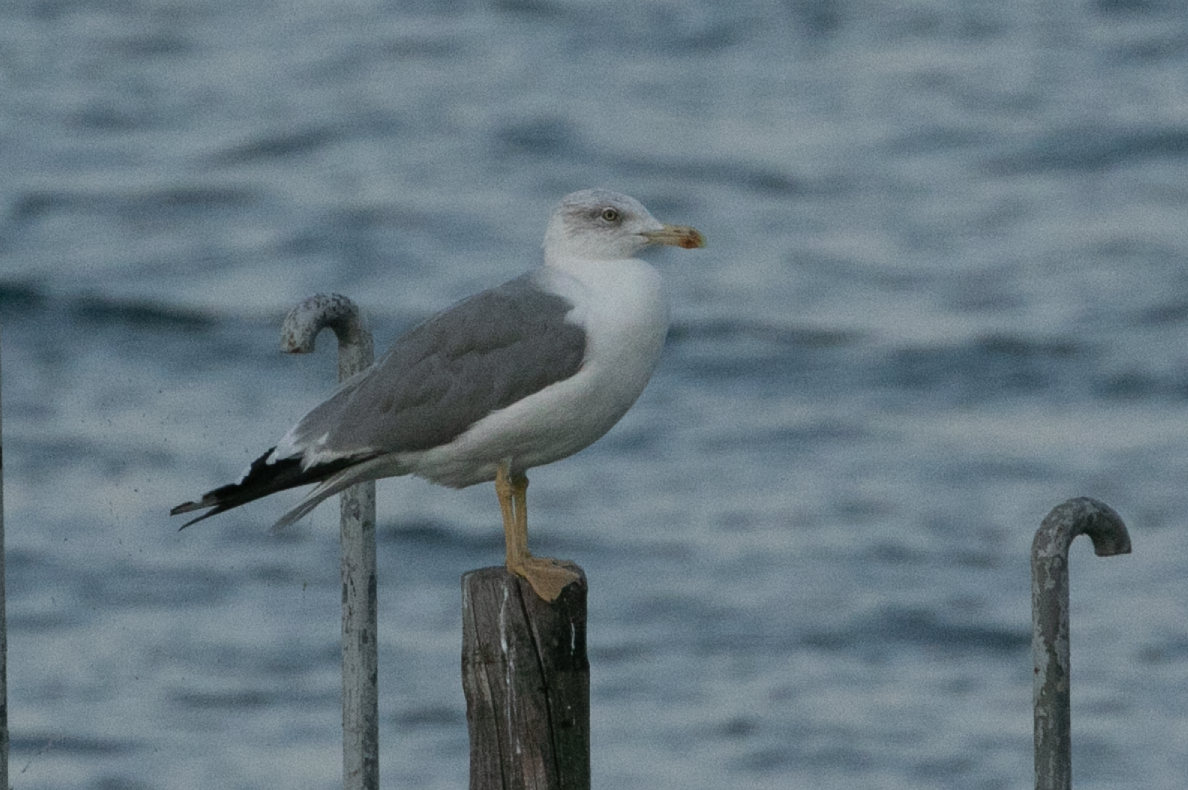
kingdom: Animalia
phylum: Chordata
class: Aves
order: Charadriiformes
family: Laridae
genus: Larus
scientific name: Larus michahellis
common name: Yellow-legged gull
